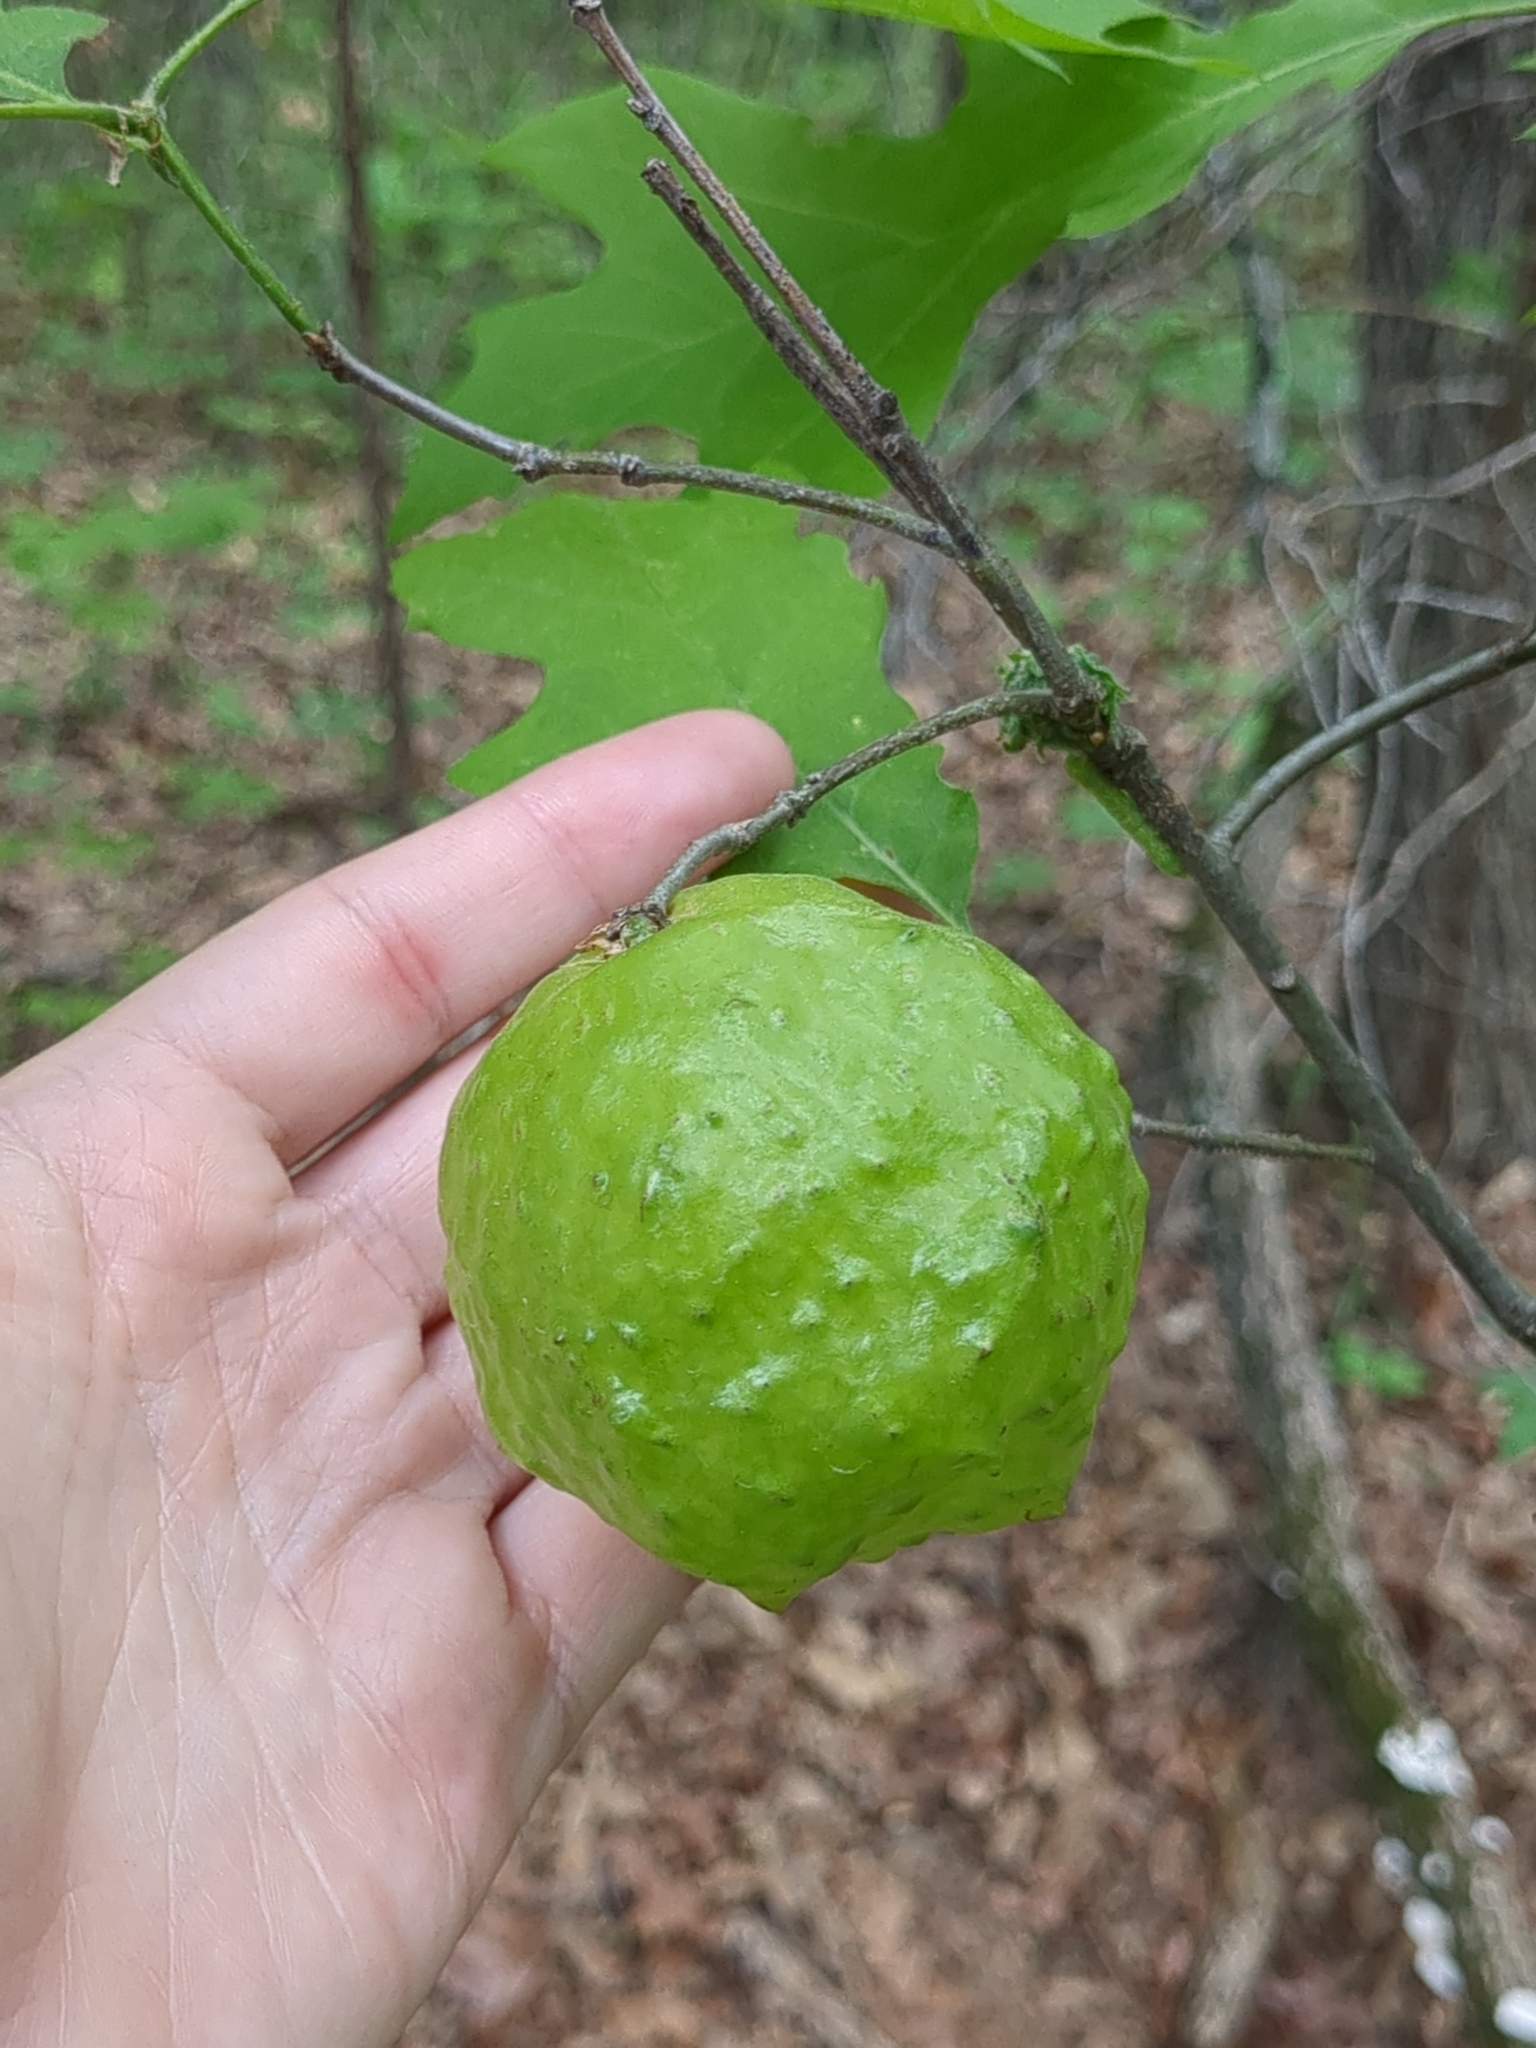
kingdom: Animalia
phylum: Arthropoda
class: Insecta
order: Hymenoptera
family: Cynipidae
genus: Amphibolips
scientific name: Amphibolips
